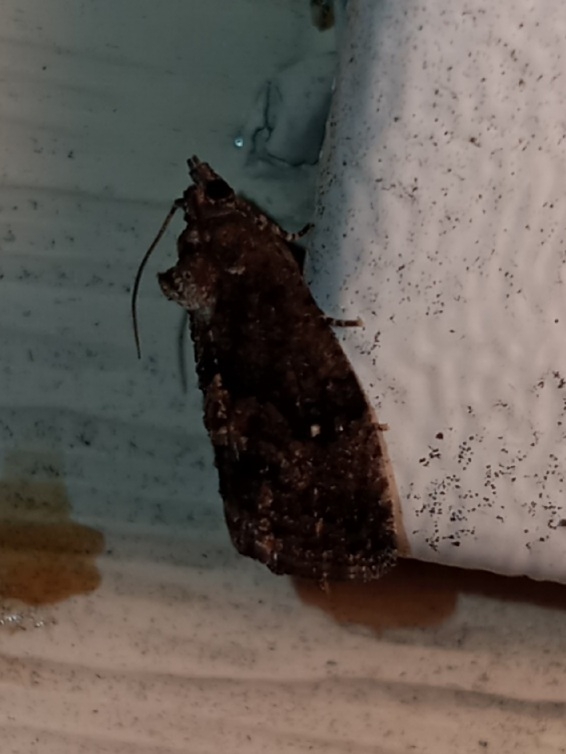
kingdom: Animalia
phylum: Arthropoda
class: Insecta
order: Lepidoptera
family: Tortricidae
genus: Gymnandrosoma
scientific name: Gymnandrosoma punctidiscanum
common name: Dotted ecdytolopha moth
